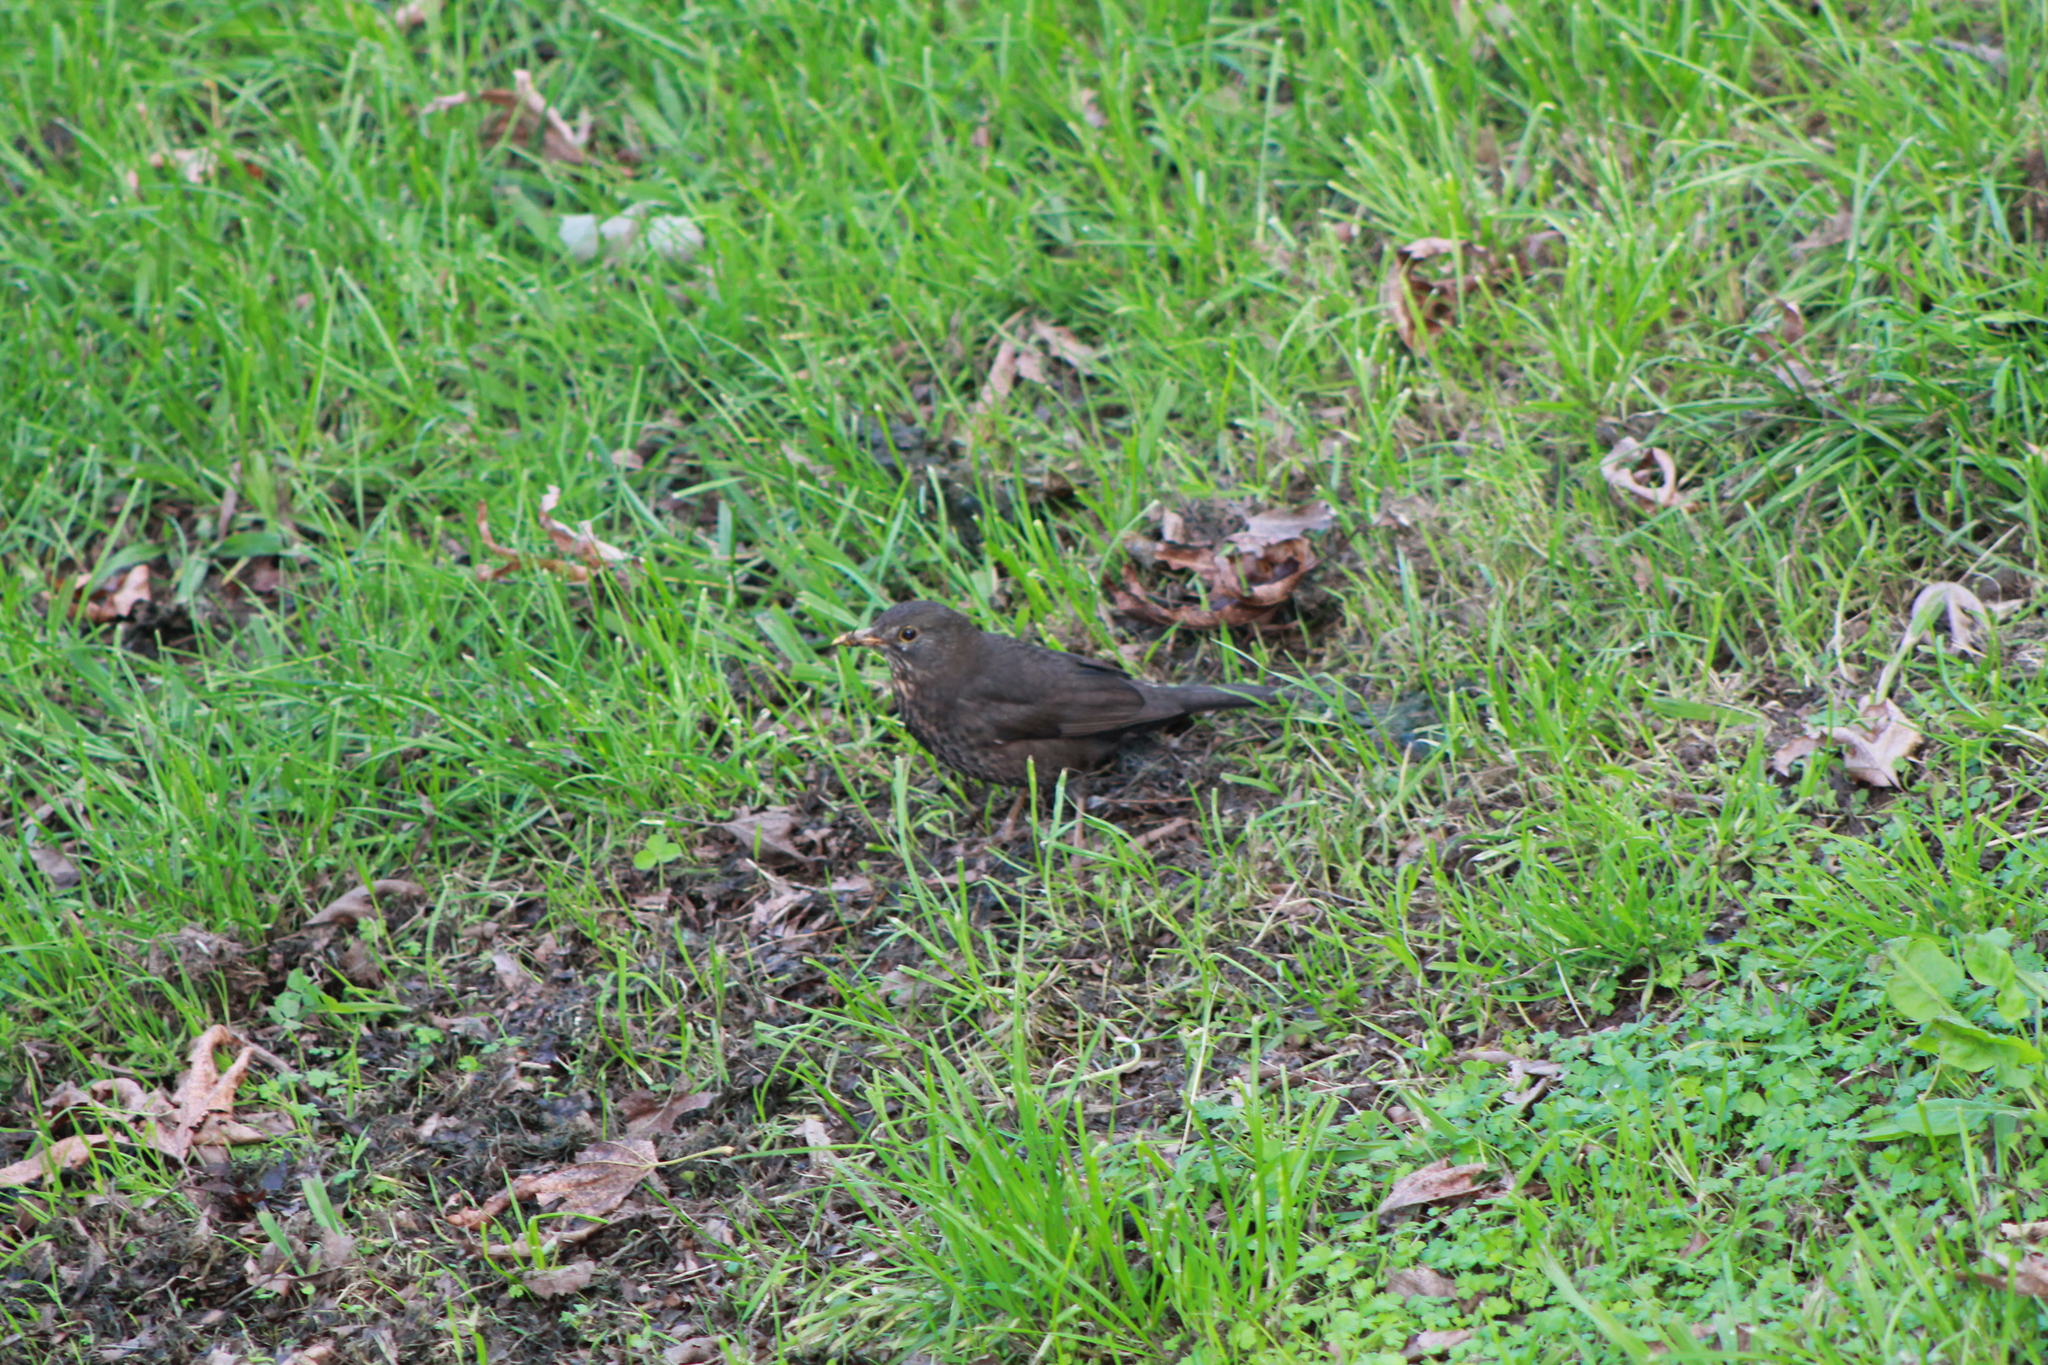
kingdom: Animalia
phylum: Chordata
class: Aves
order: Passeriformes
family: Turdidae
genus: Turdus
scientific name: Turdus merula
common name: Common blackbird
